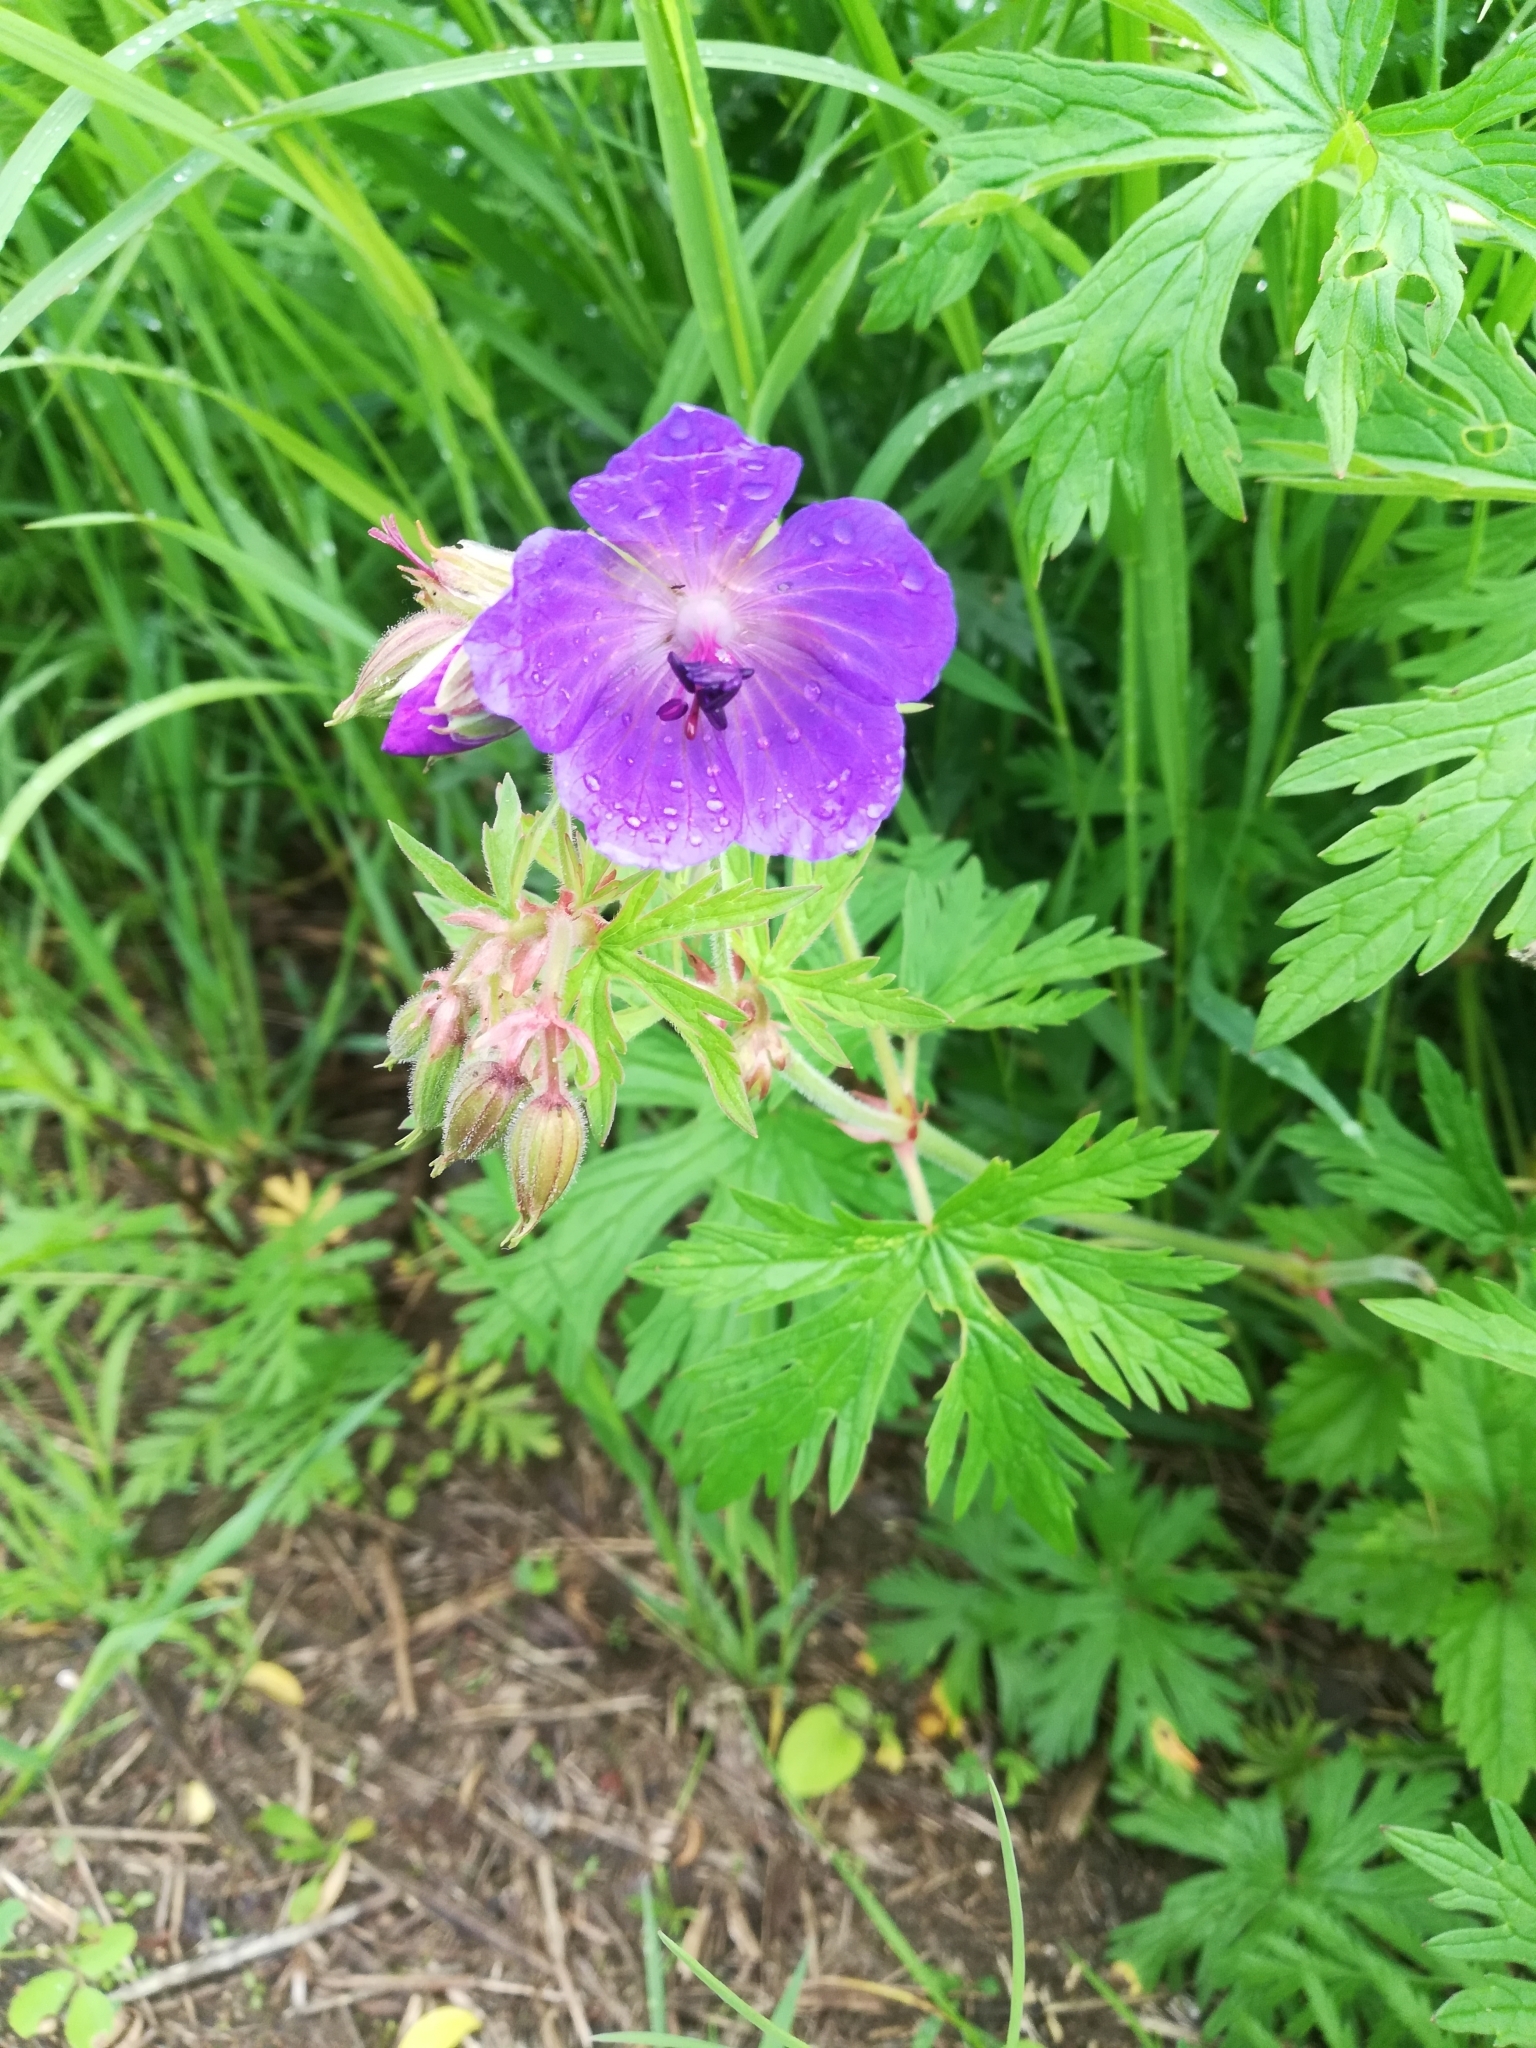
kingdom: Plantae
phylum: Tracheophyta
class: Magnoliopsida
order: Geraniales
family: Geraniaceae
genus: Geranium
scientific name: Geranium pratense
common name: Meadow crane's-bill
